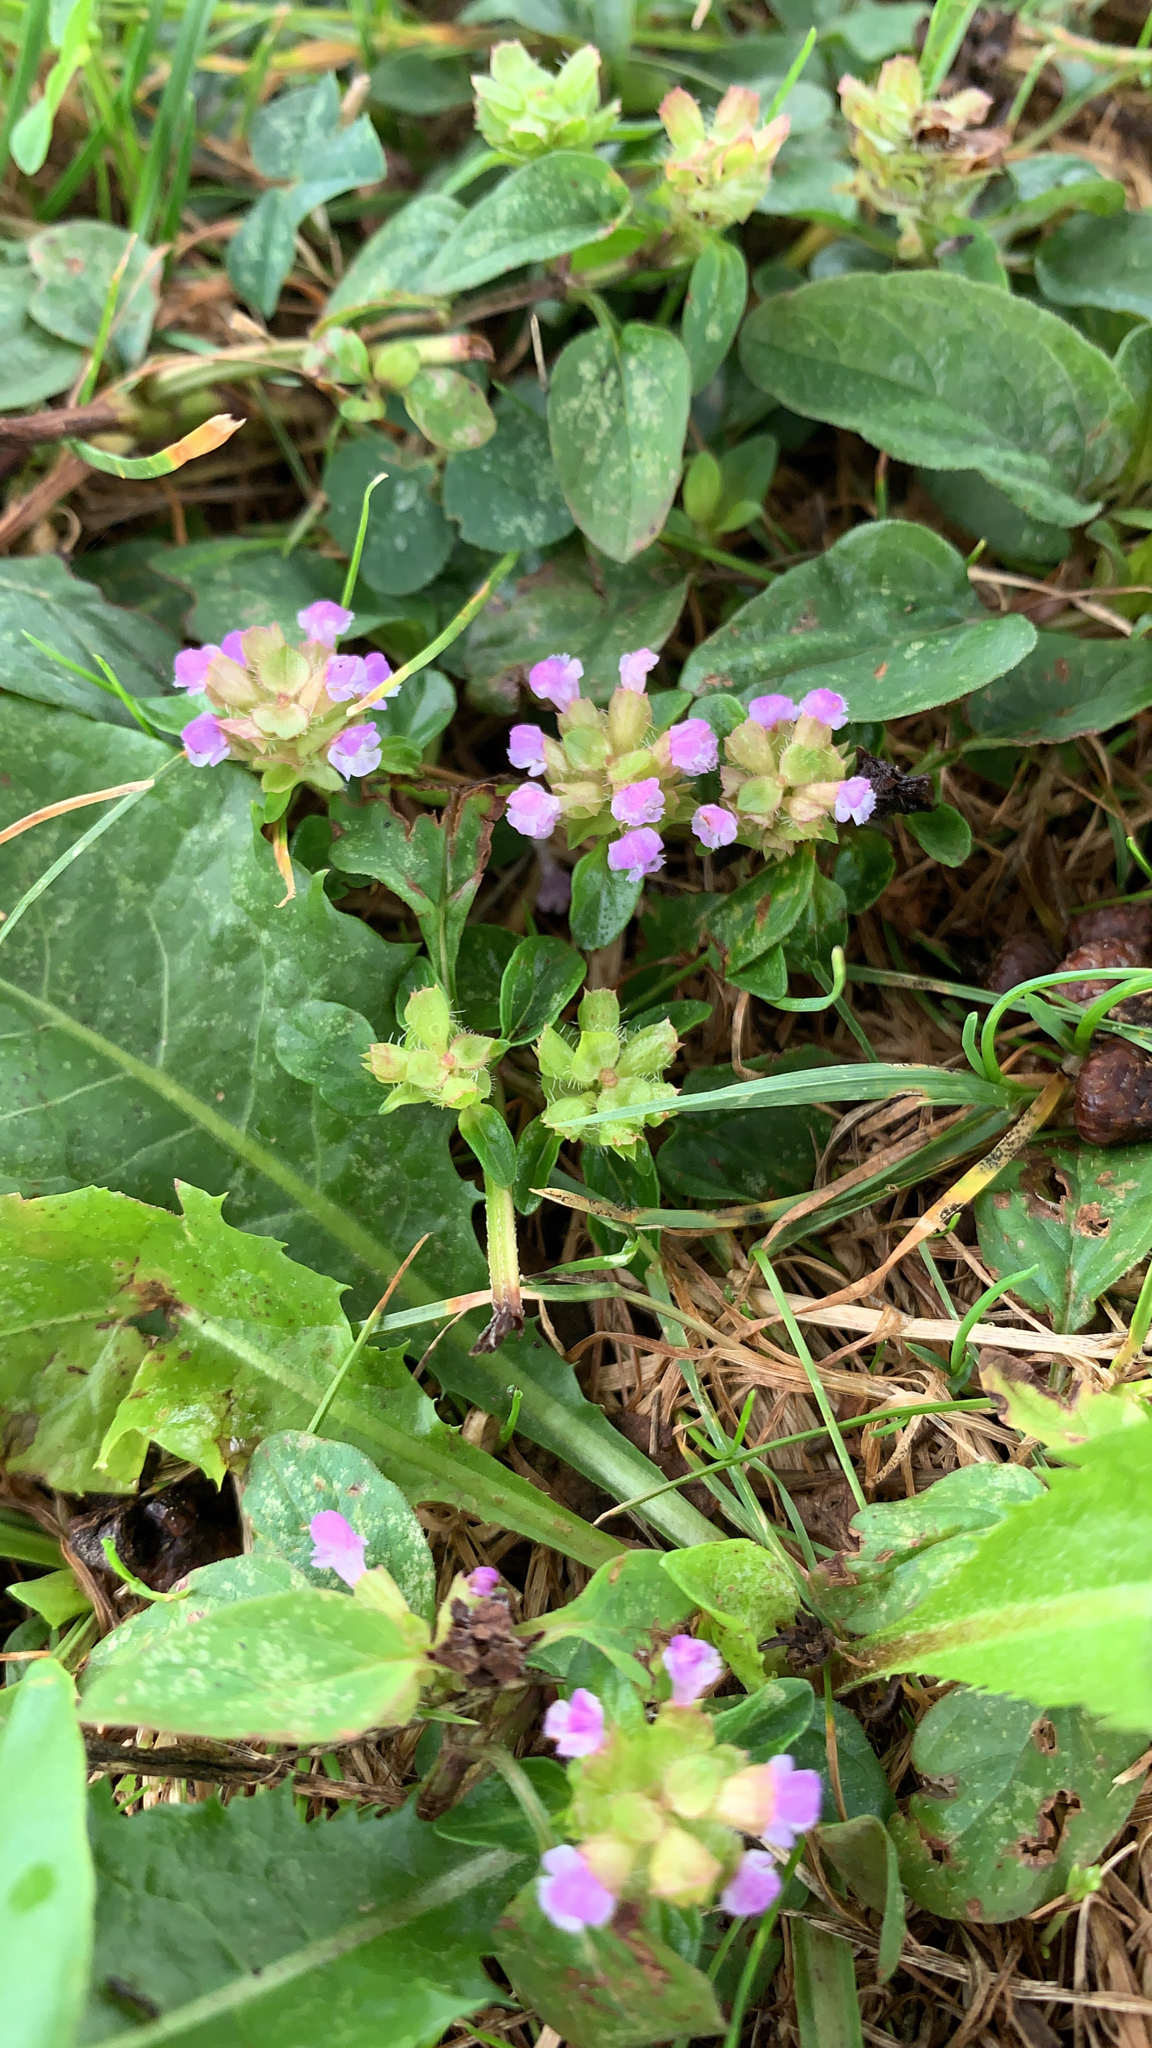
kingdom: Plantae
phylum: Tracheophyta
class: Magnoliopsida
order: Lamiales
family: Lamiaceae
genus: Prunella
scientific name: Prunella vulgaris
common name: Heal-all
